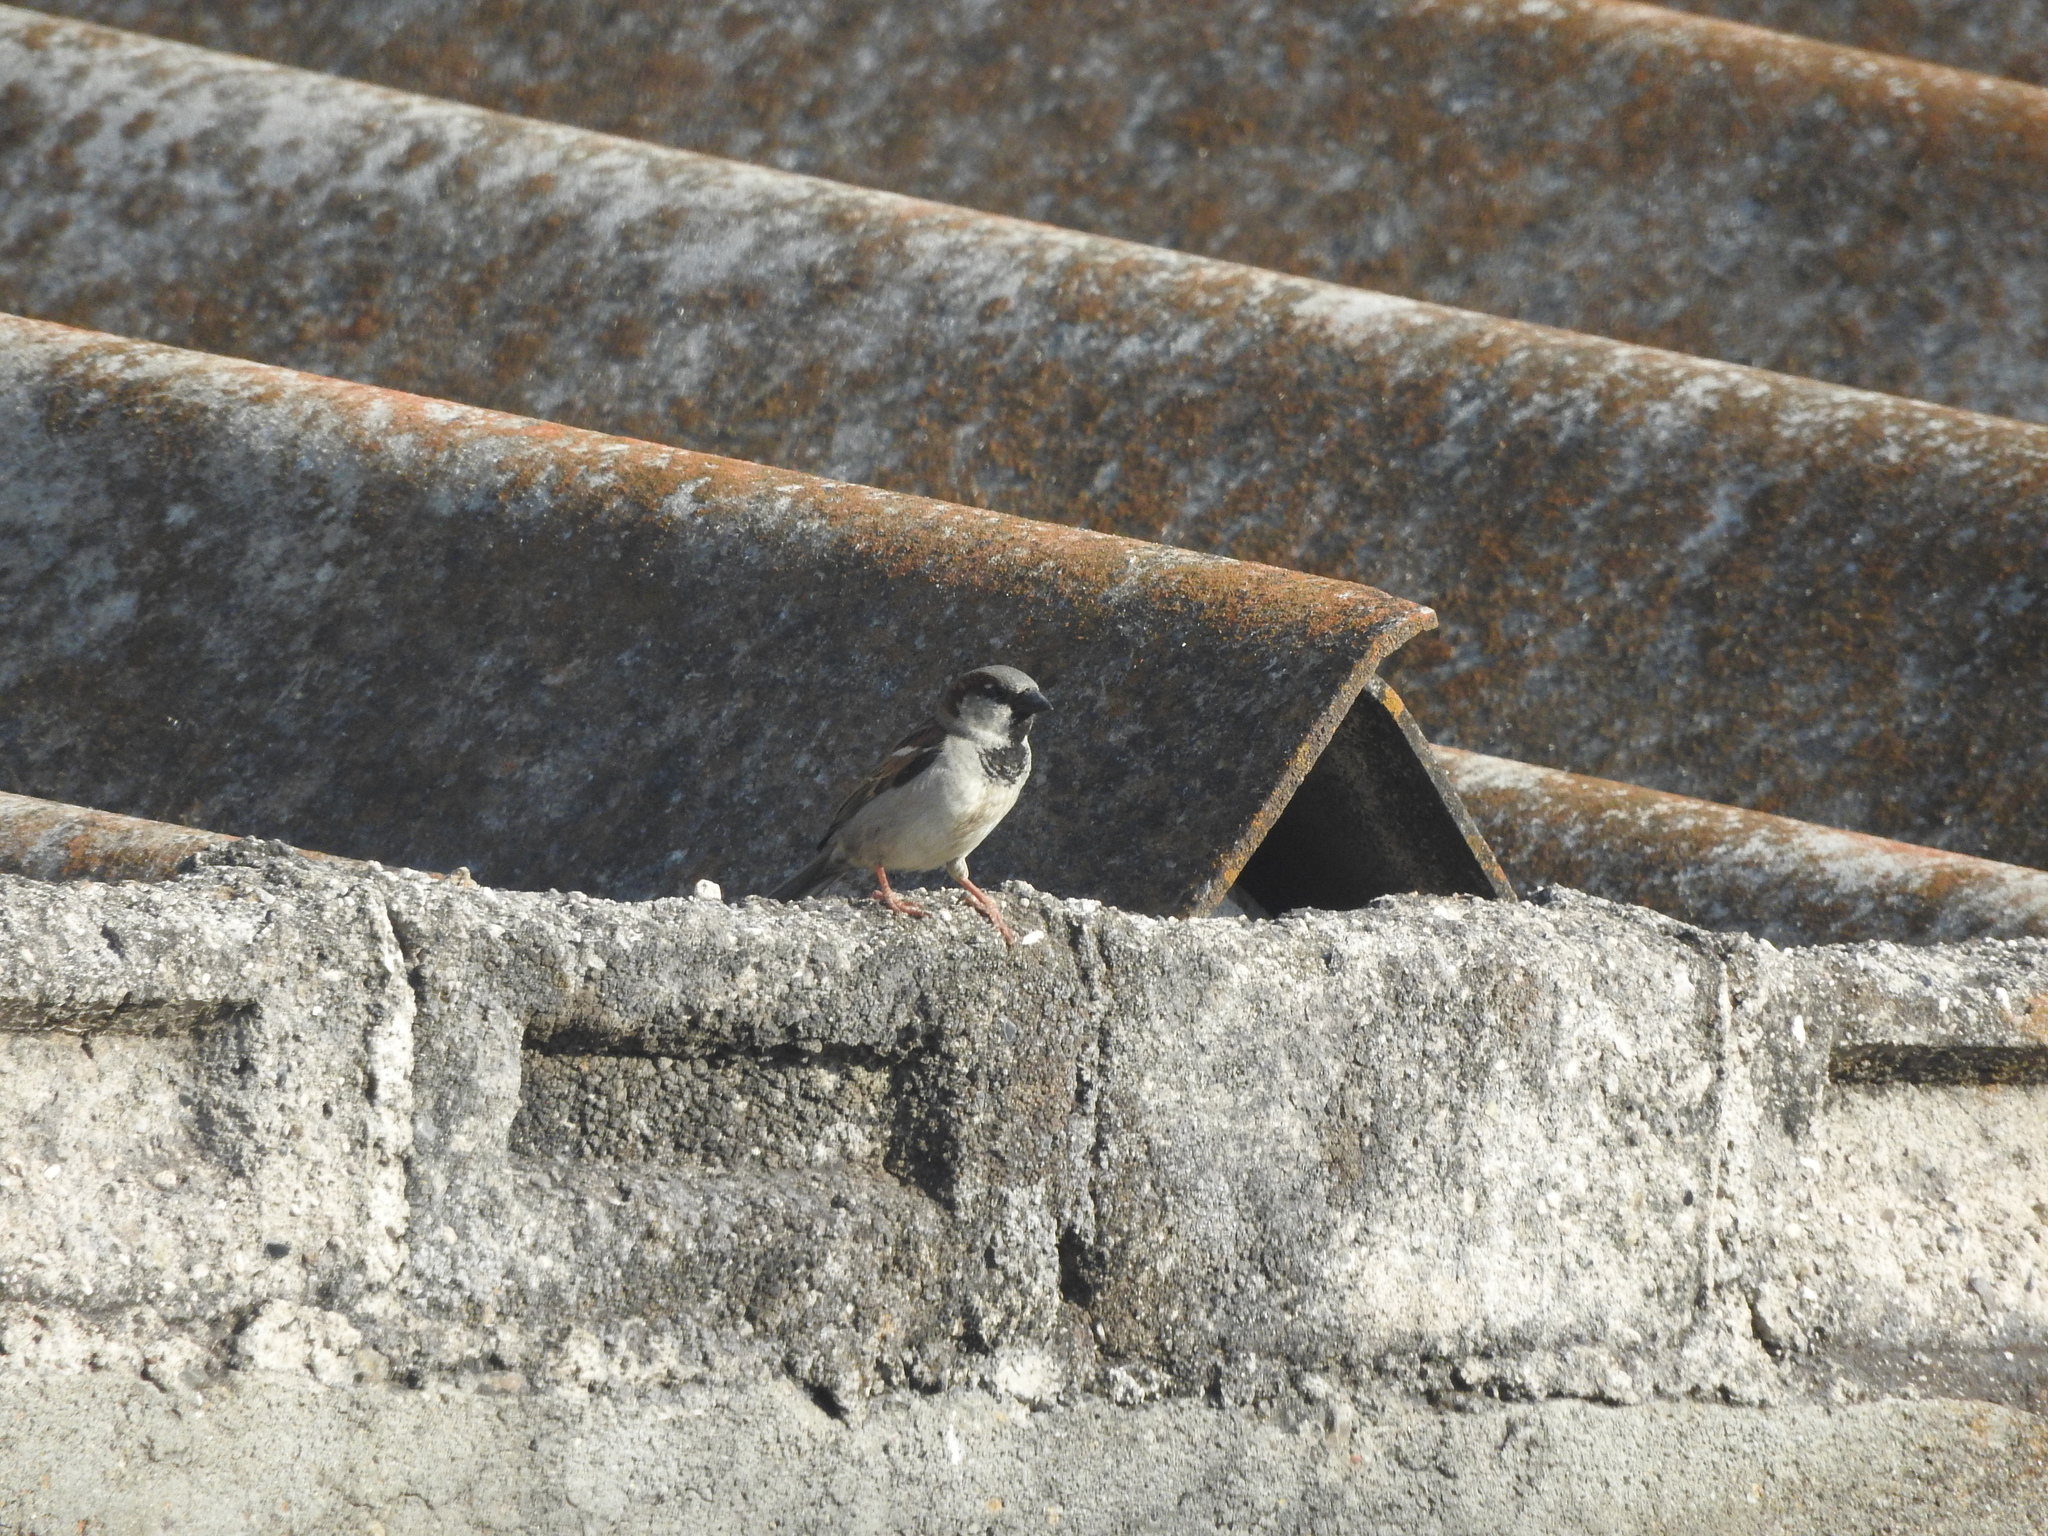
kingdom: Animalia
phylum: Chordata
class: Aves
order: Passeriformes
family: Passeridae
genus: Passer
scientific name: Passer domesticus
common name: House sparrow
